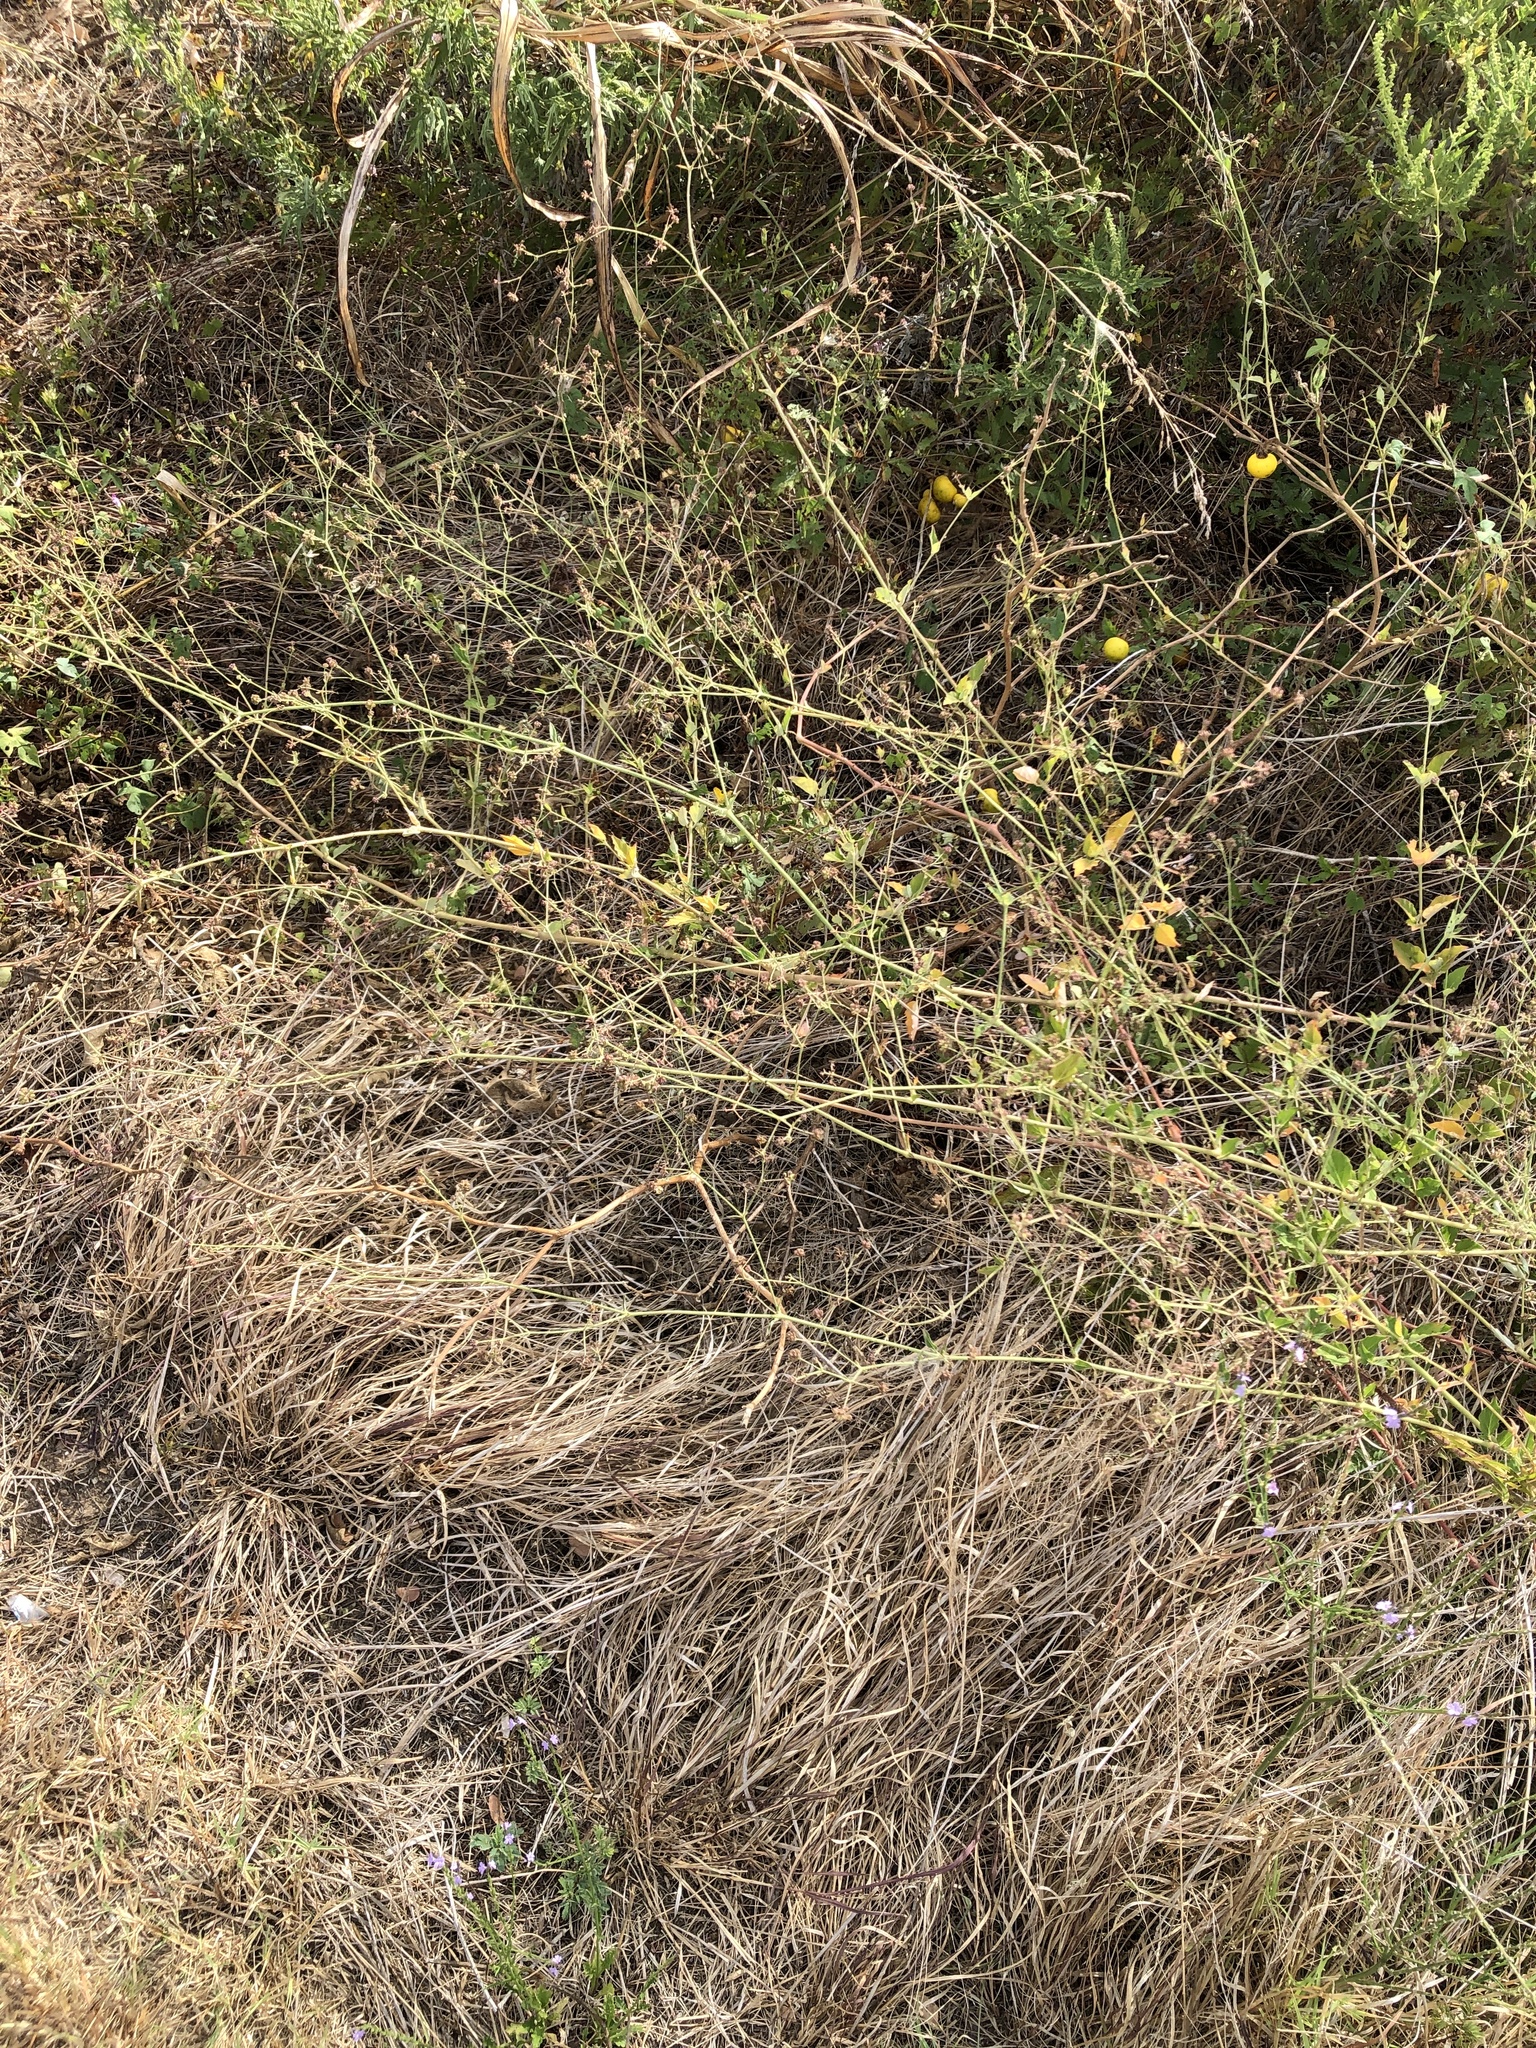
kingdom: Plantae
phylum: Tracheophyta
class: Magnoliopsida
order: Caryophyllales
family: Nyctaginaceae
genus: Boerhavia
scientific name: Boerhavia coccinea
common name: Scarlet spiderling
